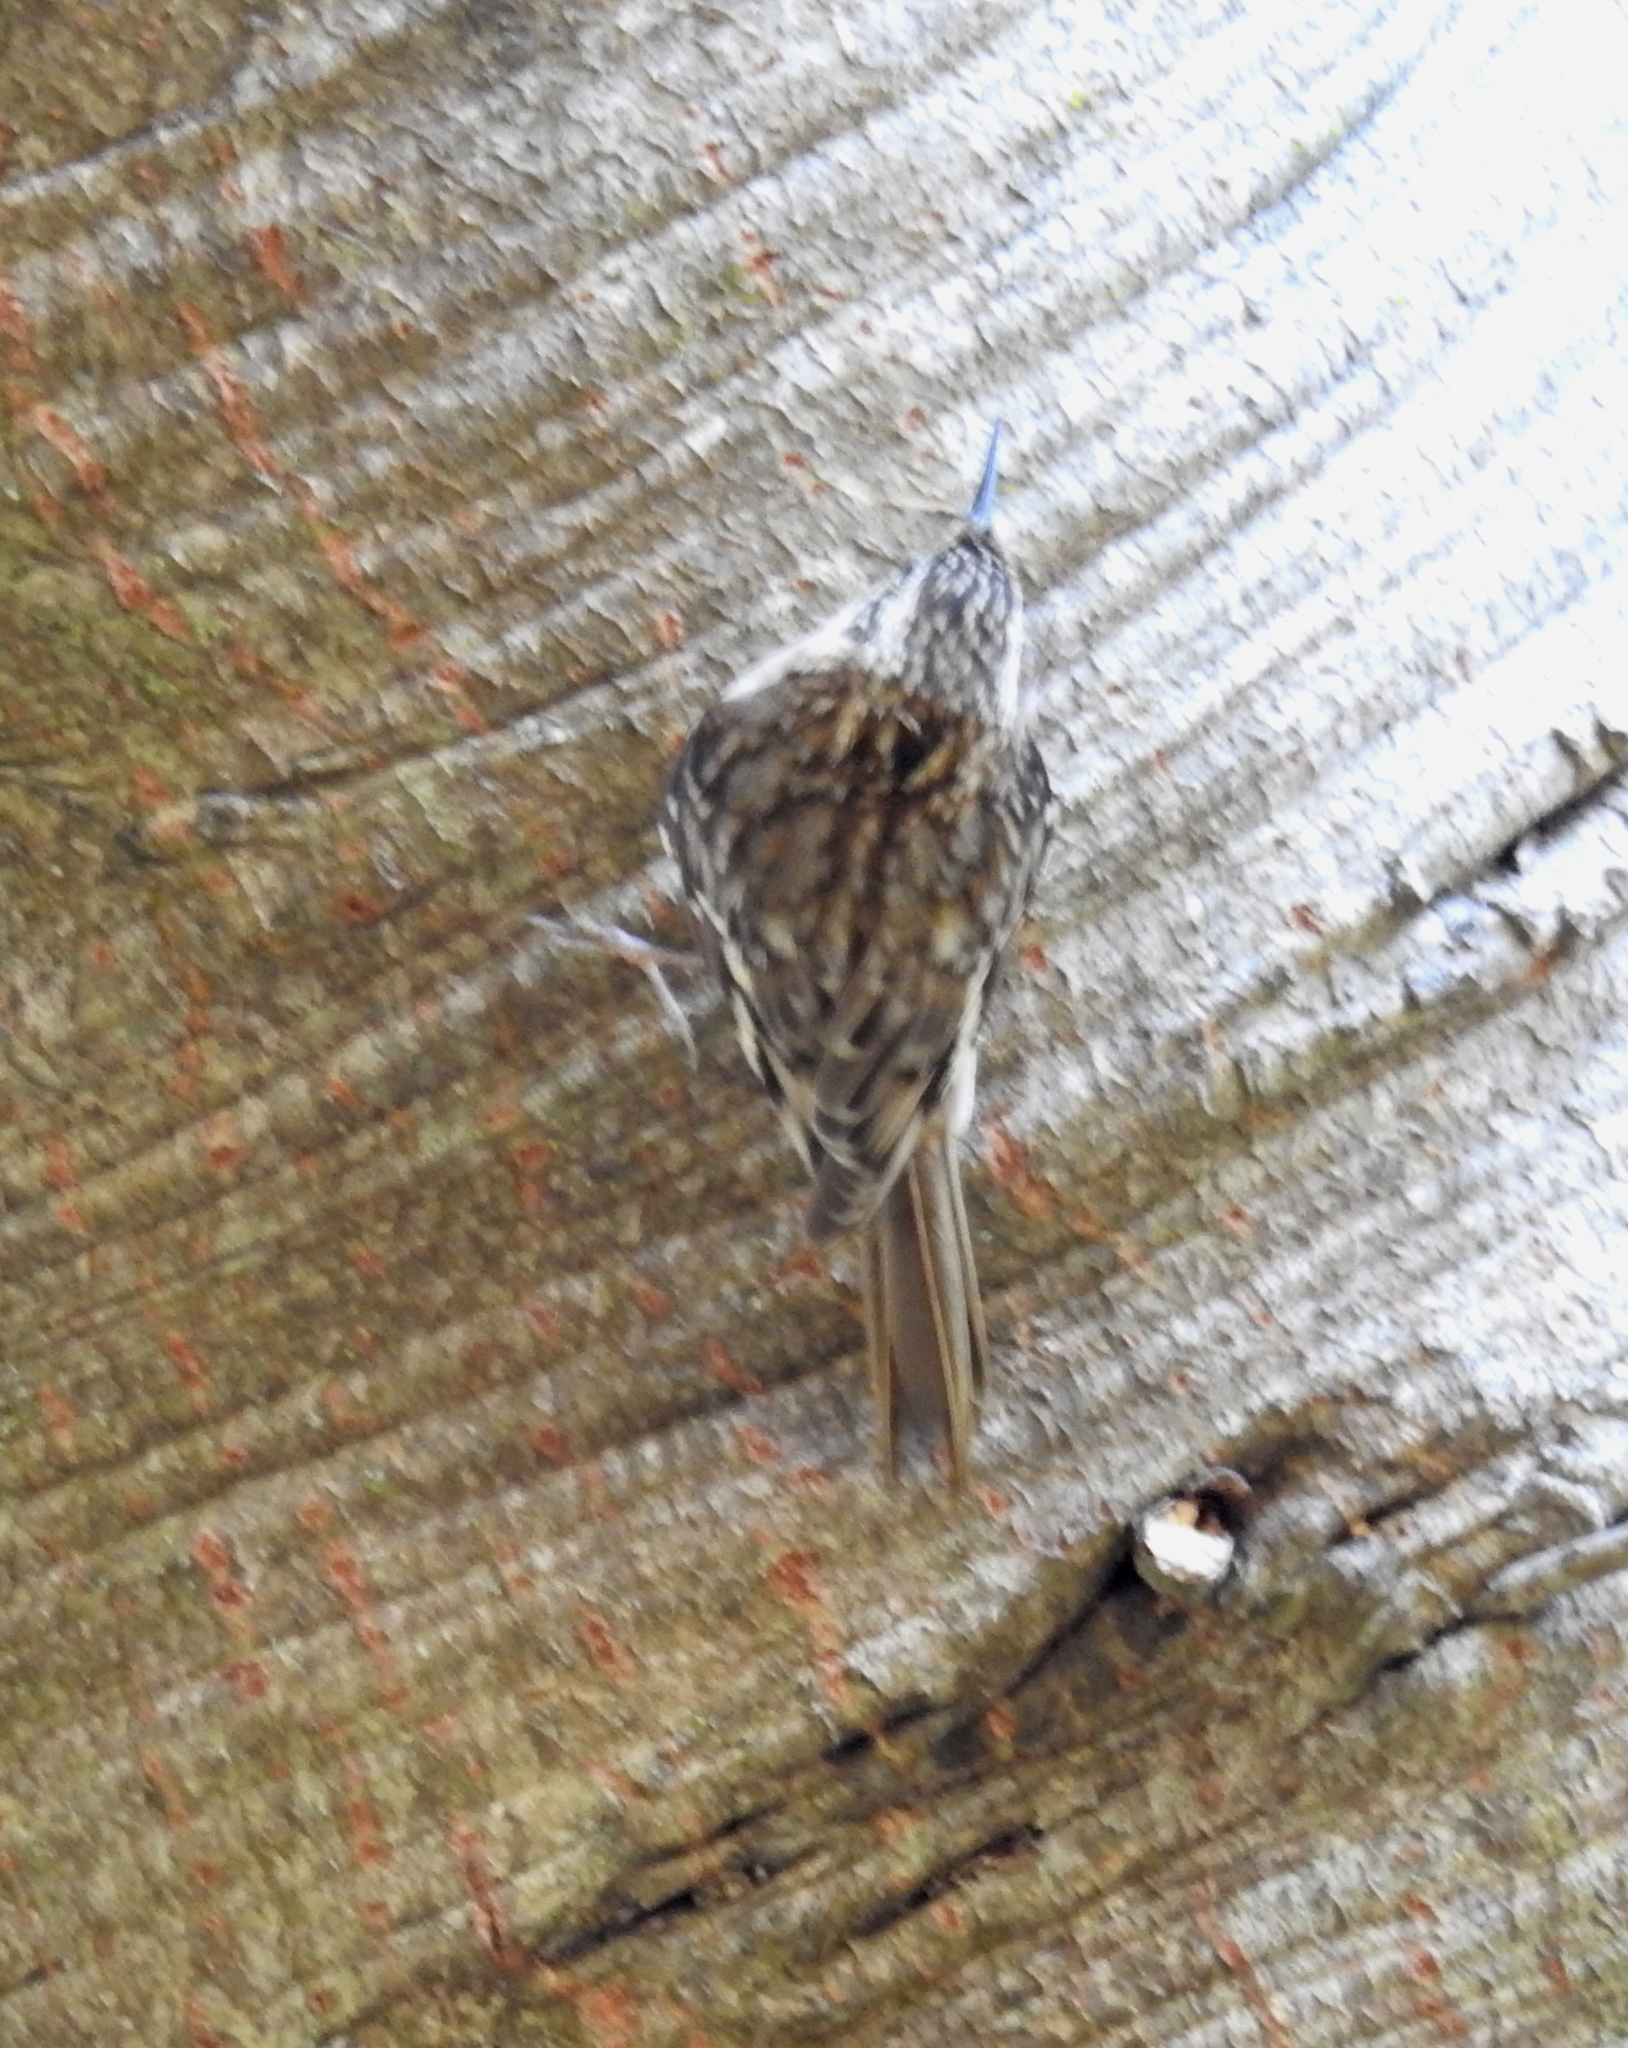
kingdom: Animalia
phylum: Chordata
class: Aves
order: Passeriformes
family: Certhiidae
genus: Certhia
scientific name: Certhia americana
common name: Brown creeper
